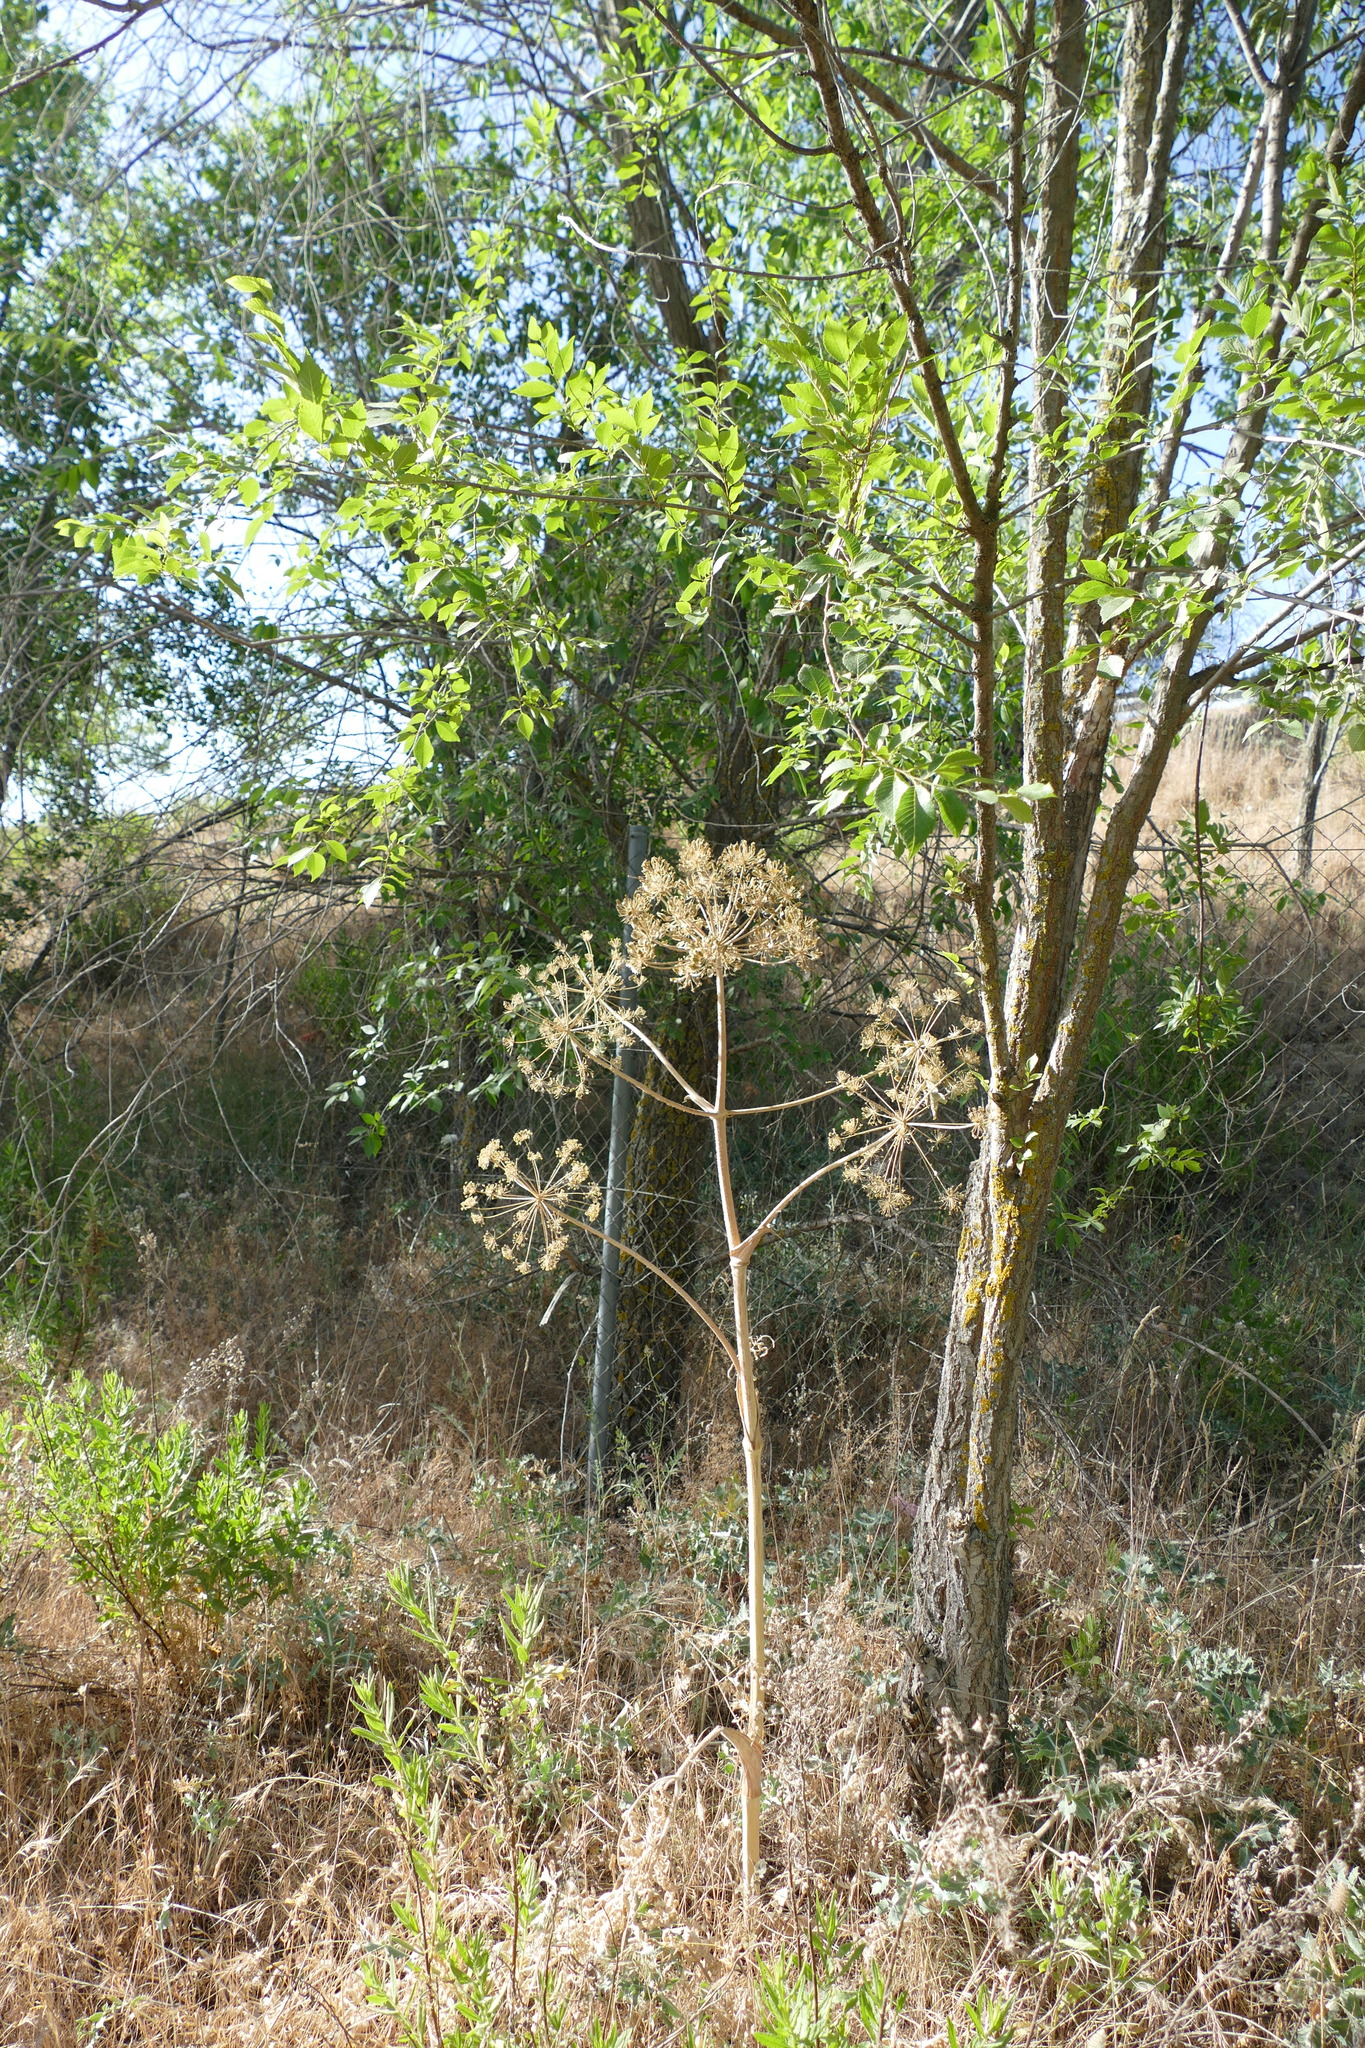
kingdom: Plantae
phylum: Tracheophyta
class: Magnoliopsida
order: Apiales
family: Apiaceae
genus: Thapsia
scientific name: Thapsia villosa
